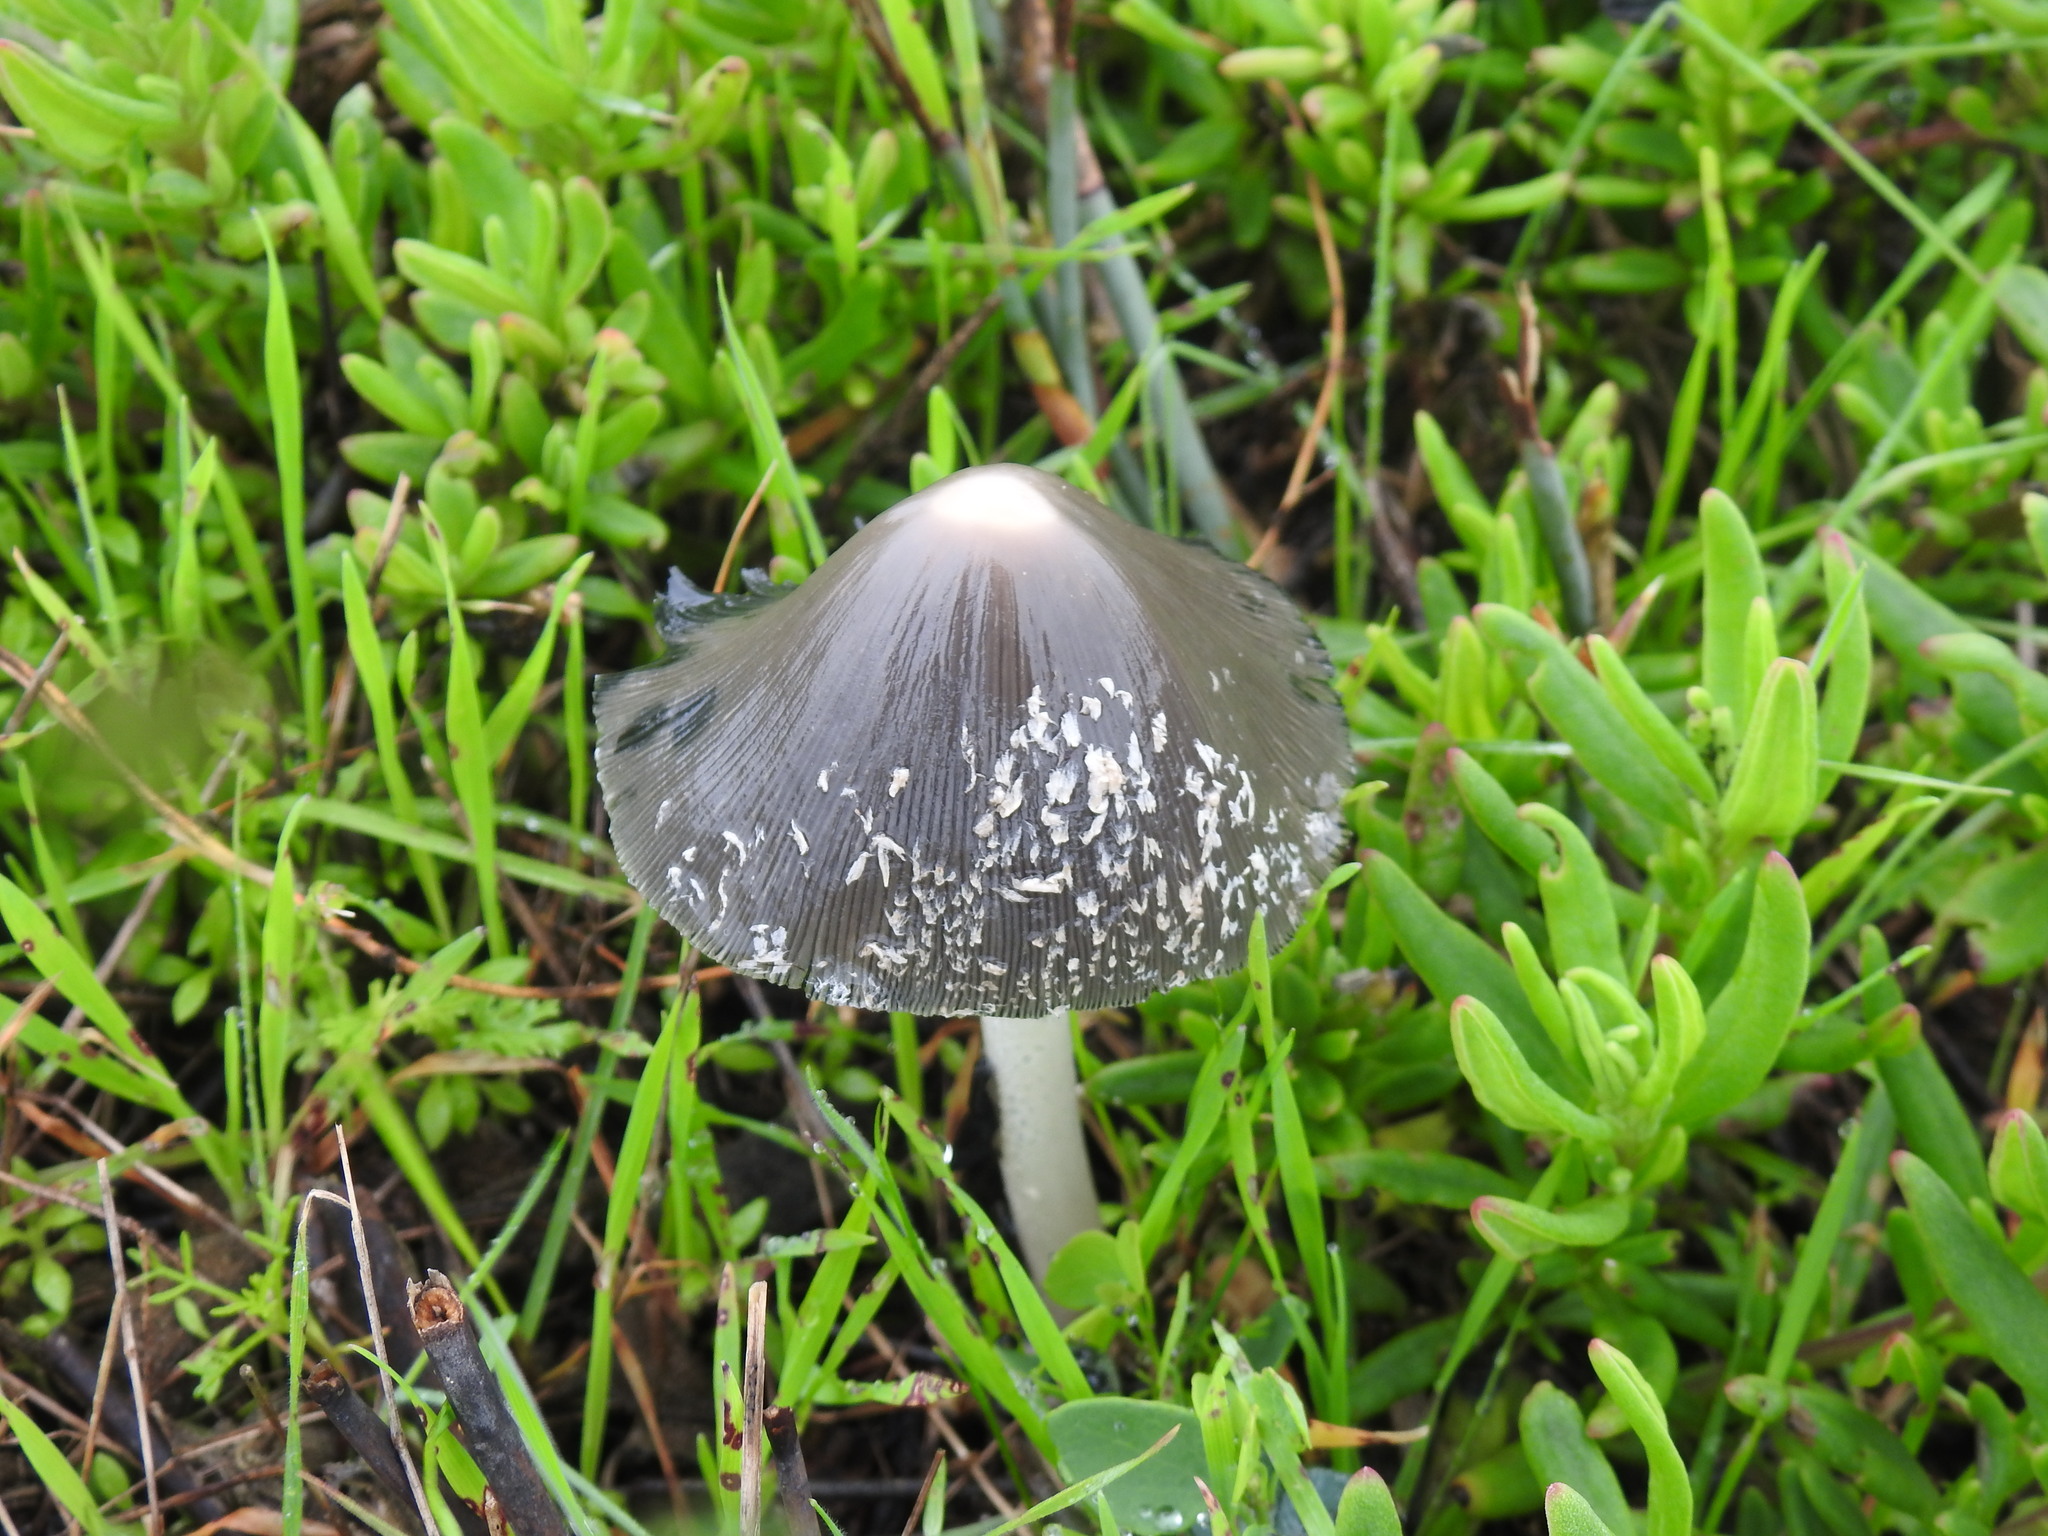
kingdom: Fungi
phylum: Basidiomycota
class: Agaricomycetes
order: Agaricales
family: Psathyrellaceae
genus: Coprinopsis
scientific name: Coprinopsis picacea
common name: Magpie inkcap
